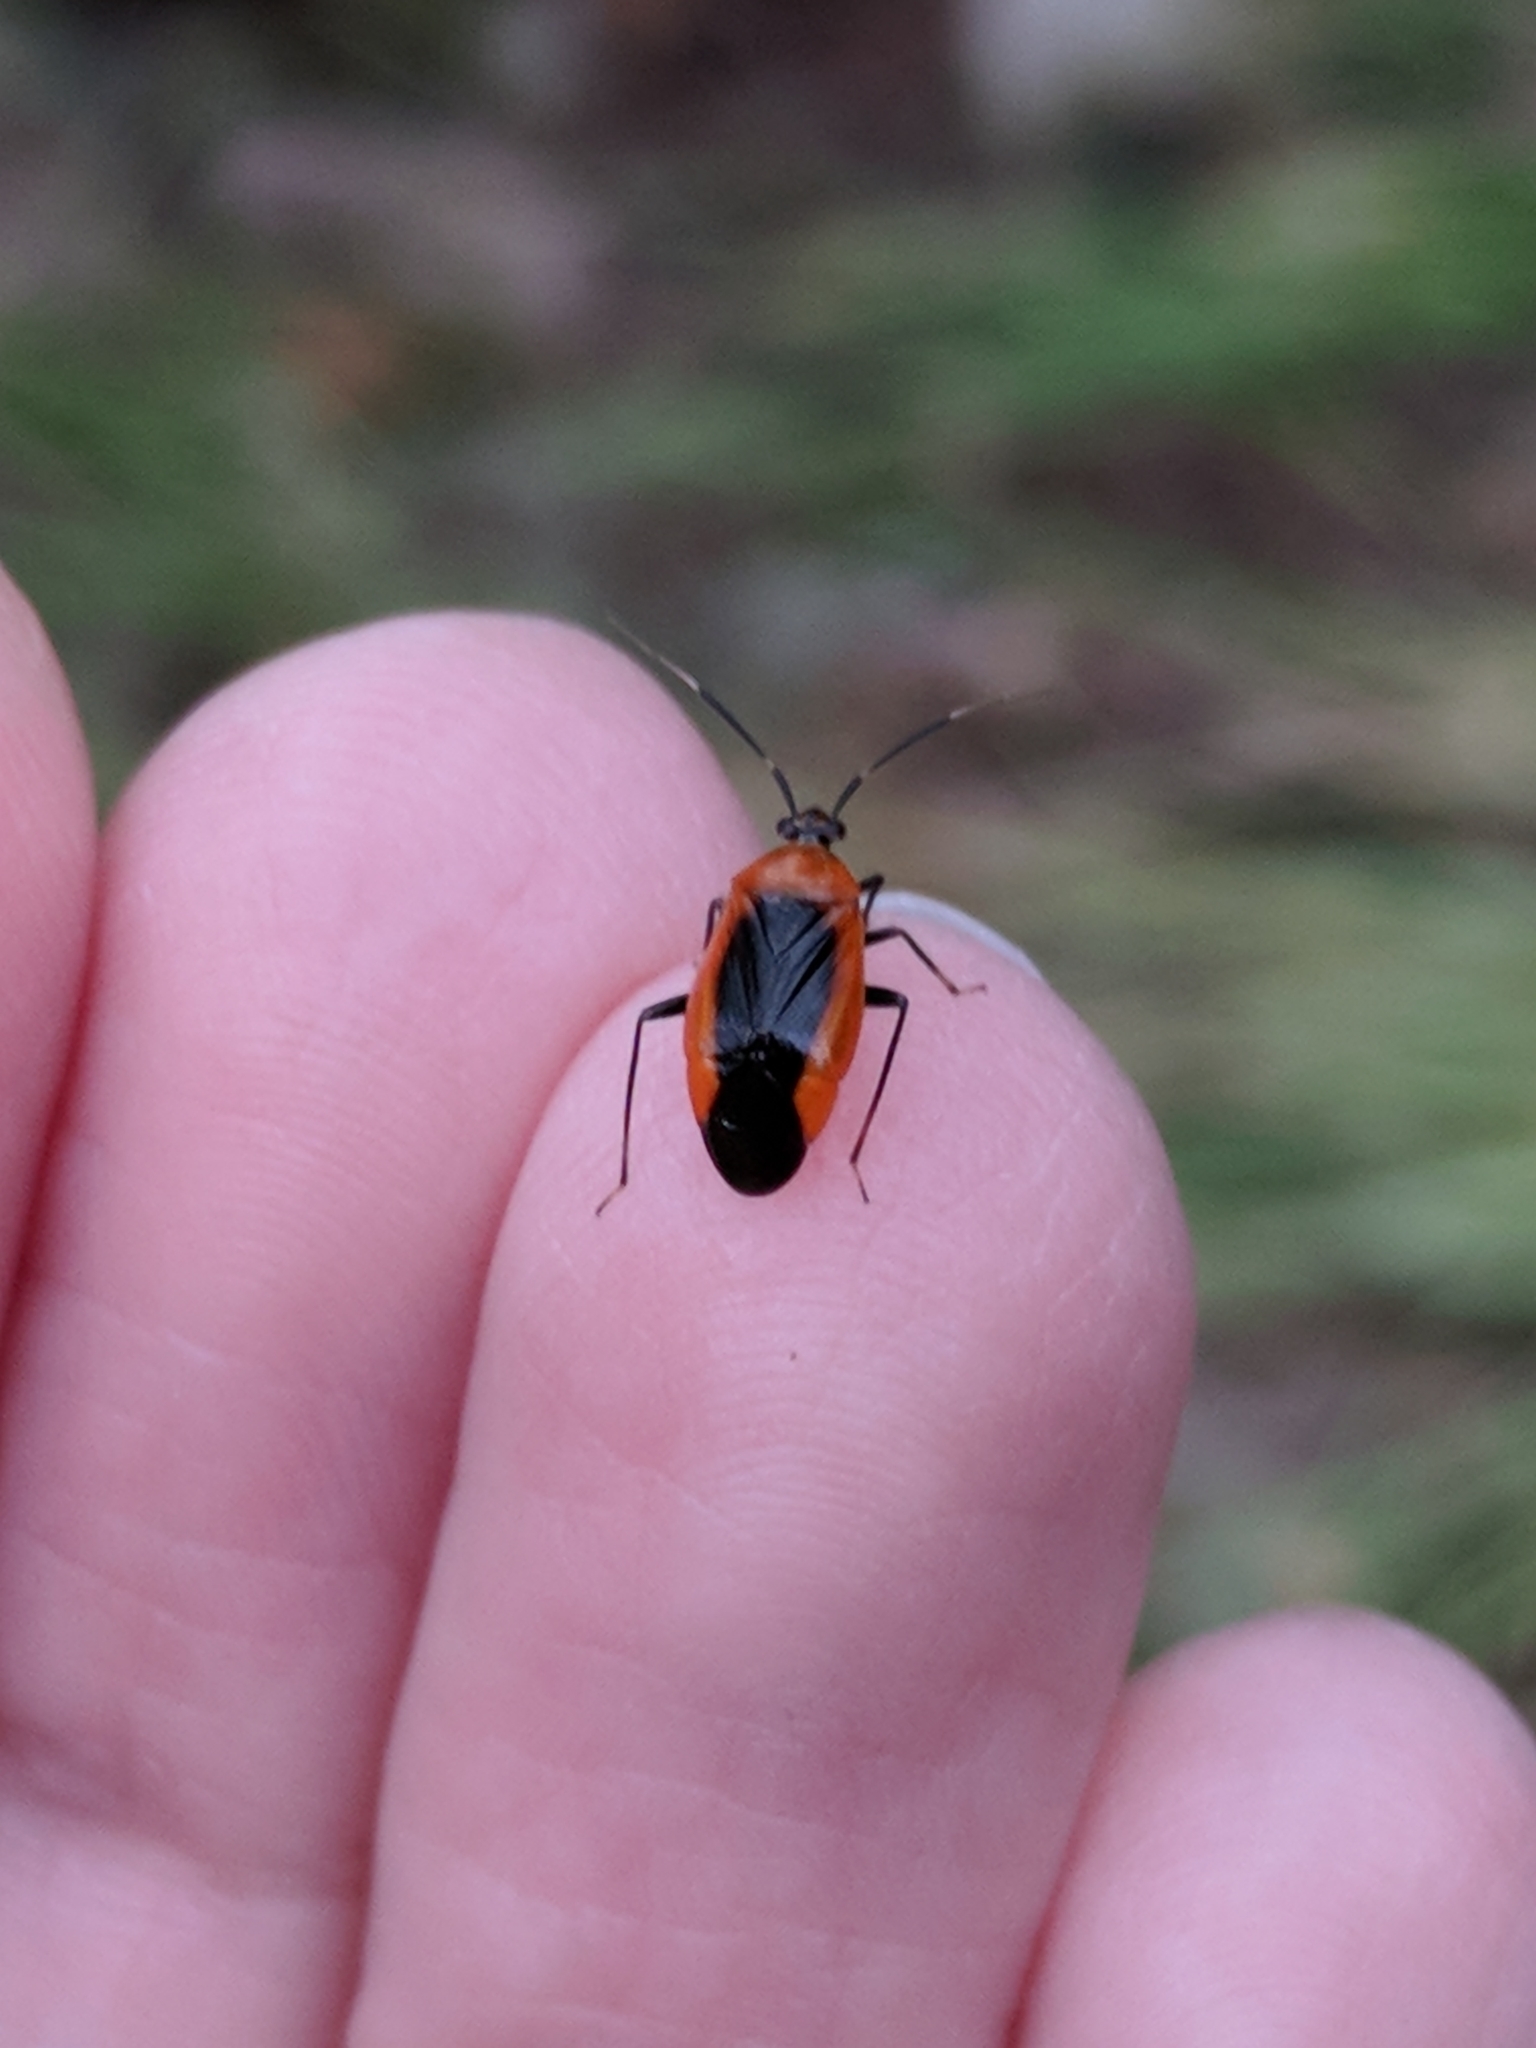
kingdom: Animalia
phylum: Arthropoda
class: Insecta
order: Hemiptera
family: Miridae
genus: Metriorrhynchomiris
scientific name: Metriorrhynchomiris dislocatus
